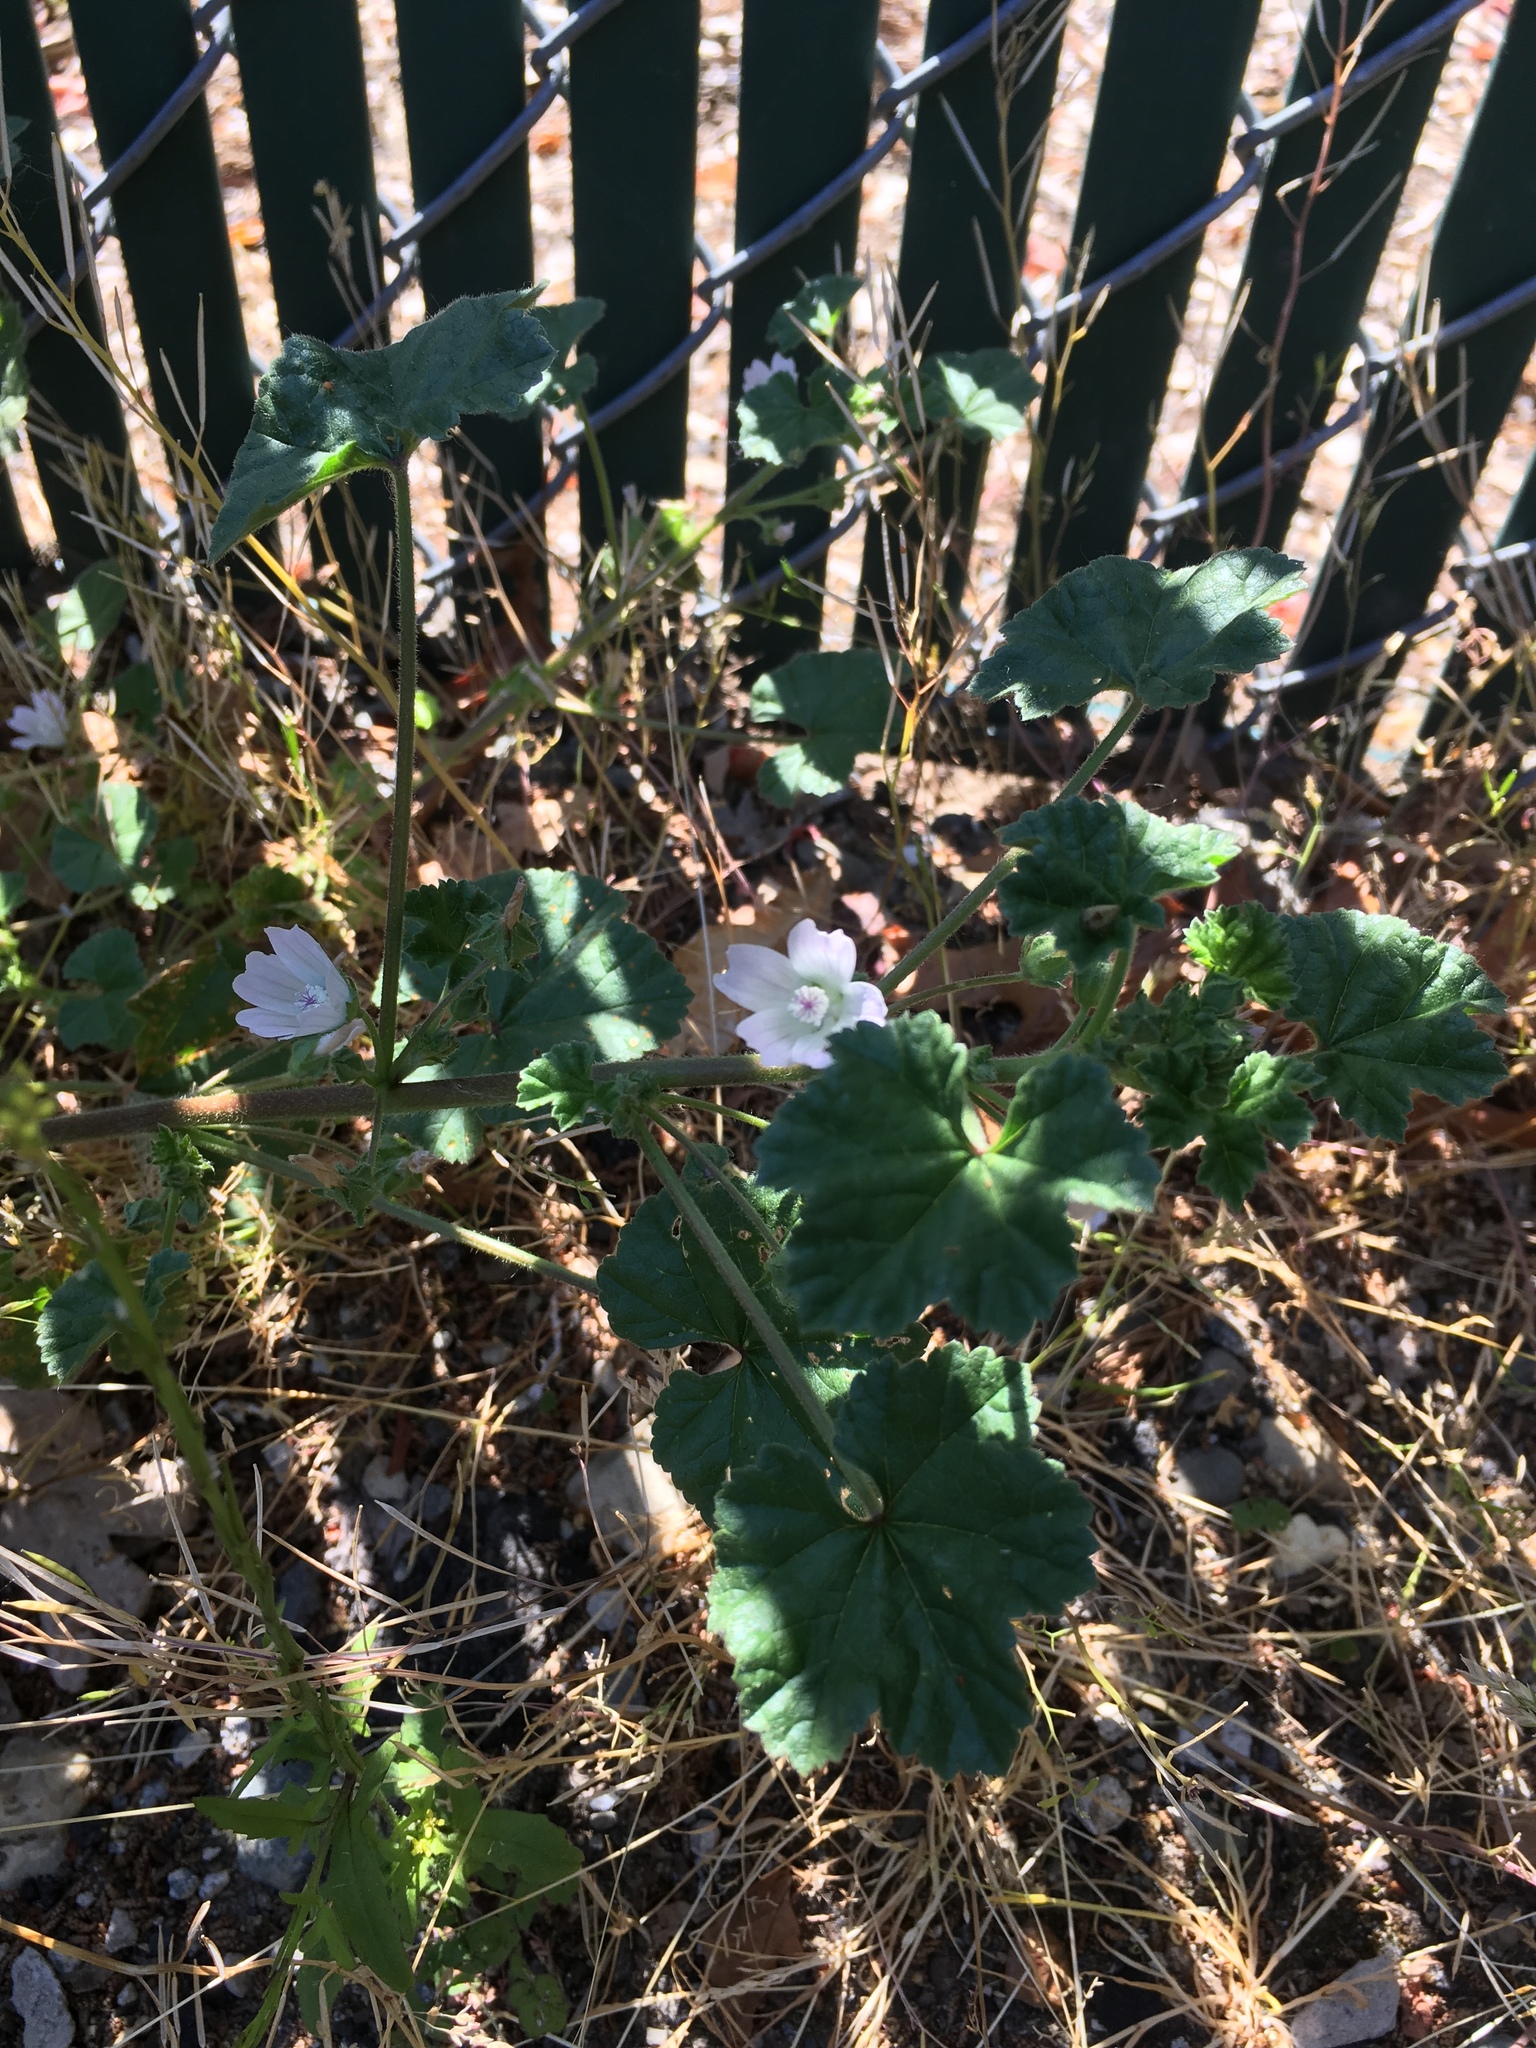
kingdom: Plantae
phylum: Tracheophyta
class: Magnoliopsida
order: Malvales
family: Malvaceae
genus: Malva
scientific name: Malva neglecta
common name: Common mallow
